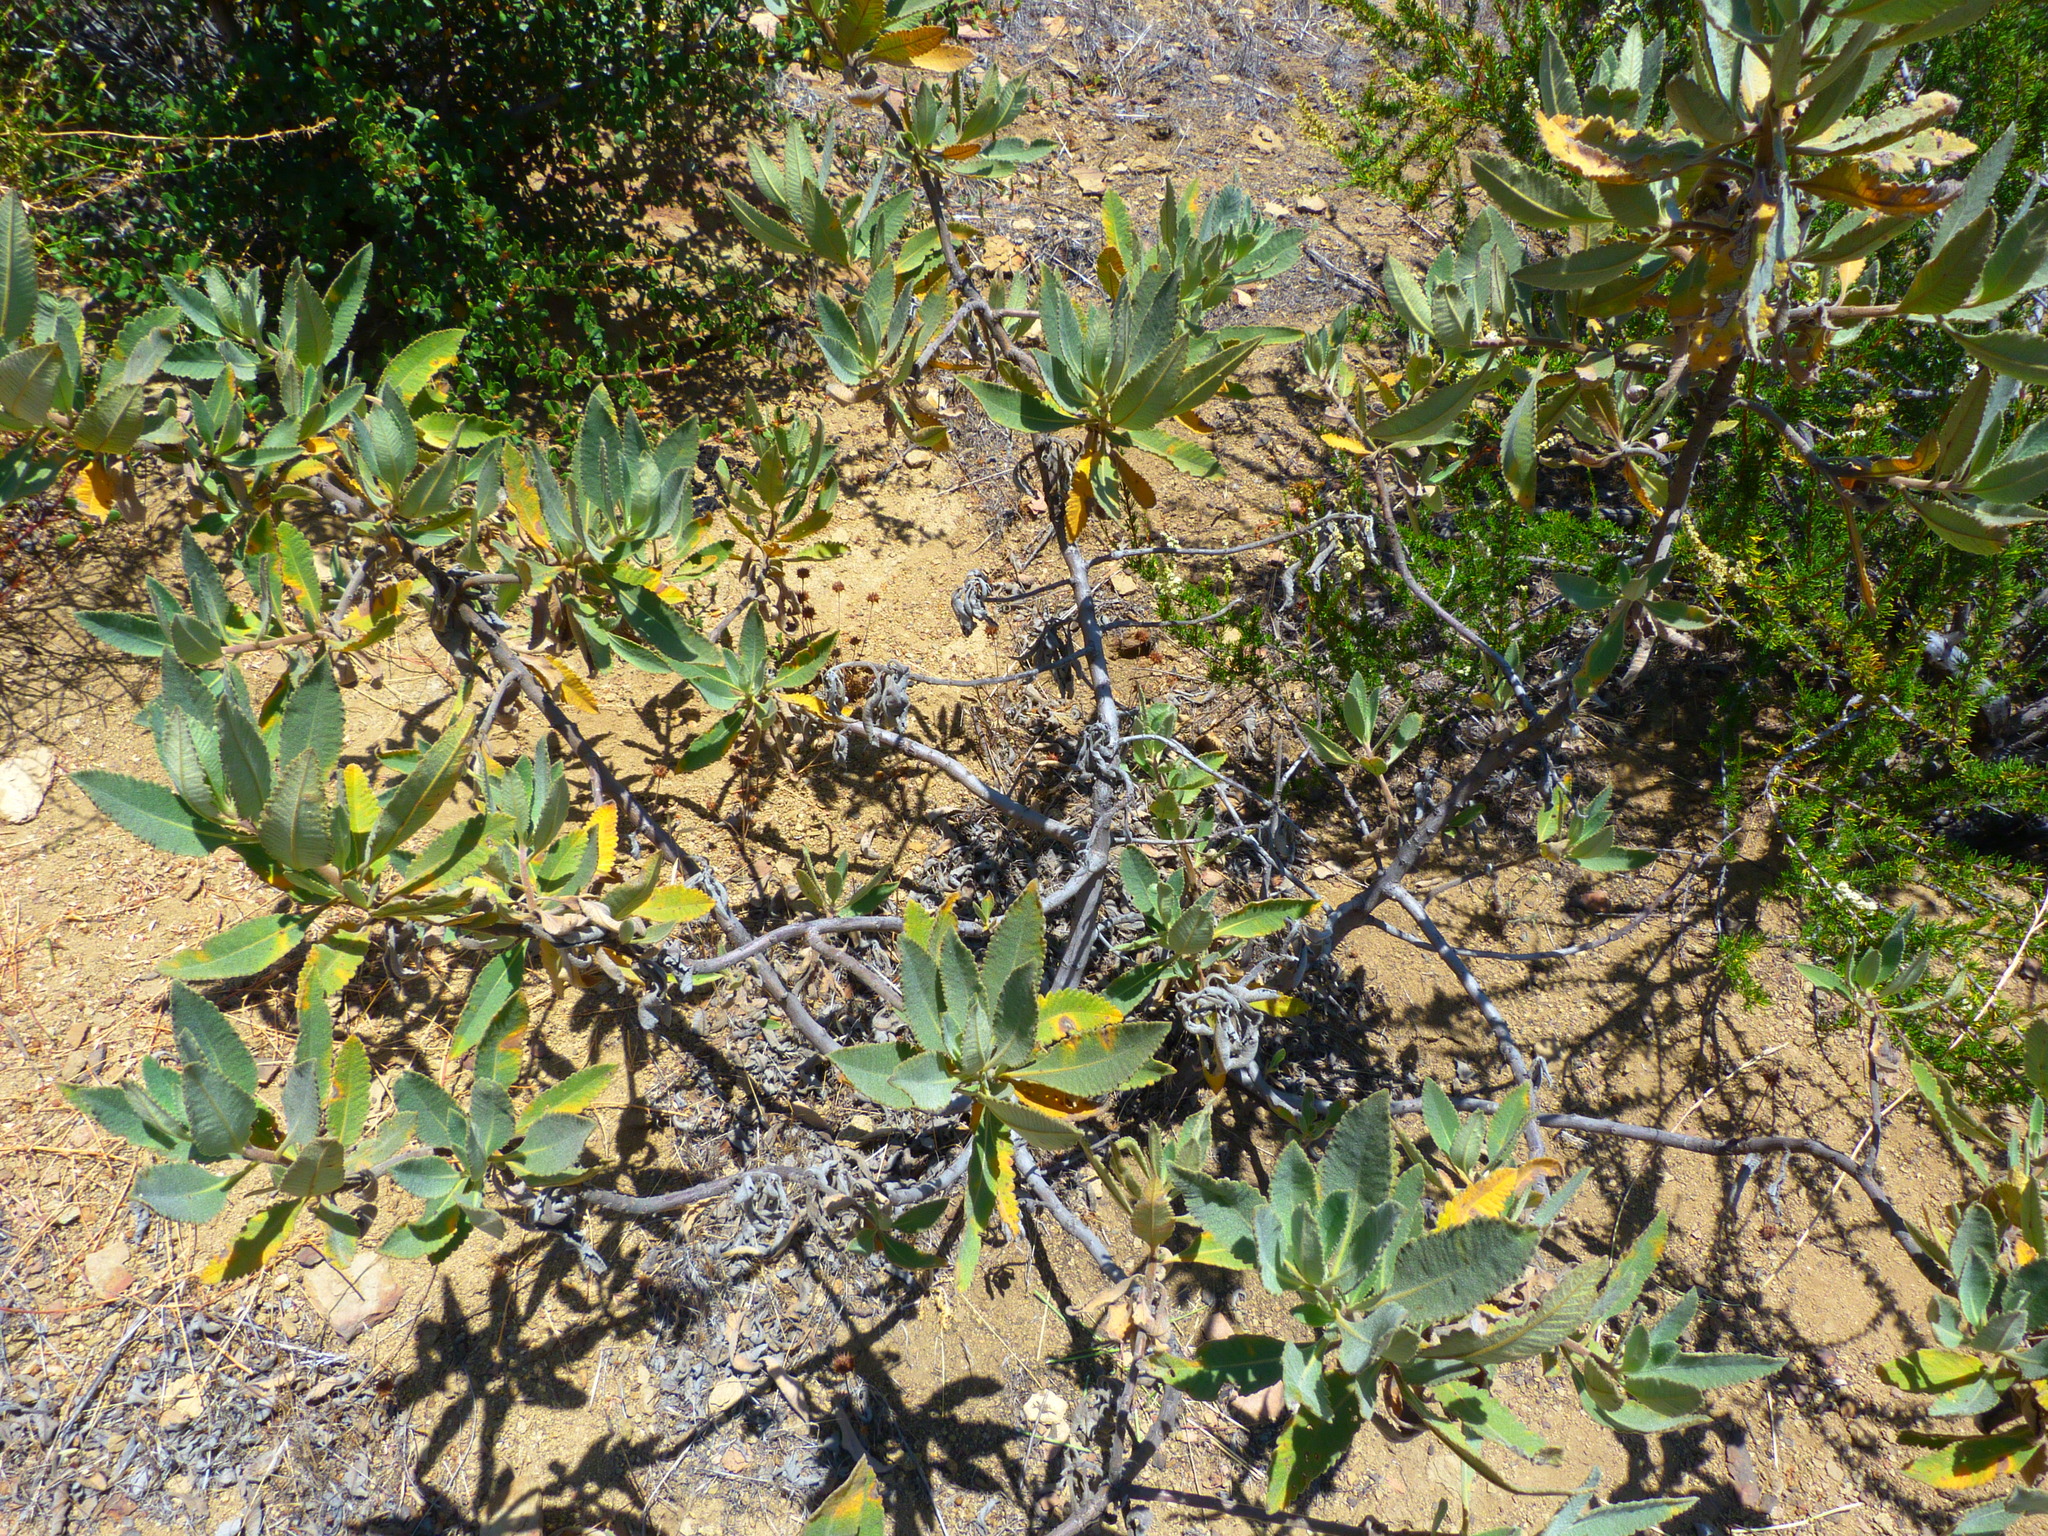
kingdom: Plantae
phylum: Tracheophyta
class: Magnoliopsida
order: Boraginales
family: Namaceae
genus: Eriodictyon
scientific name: Eriodictyon crassifolium
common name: Thick-leaf yerba-santa
